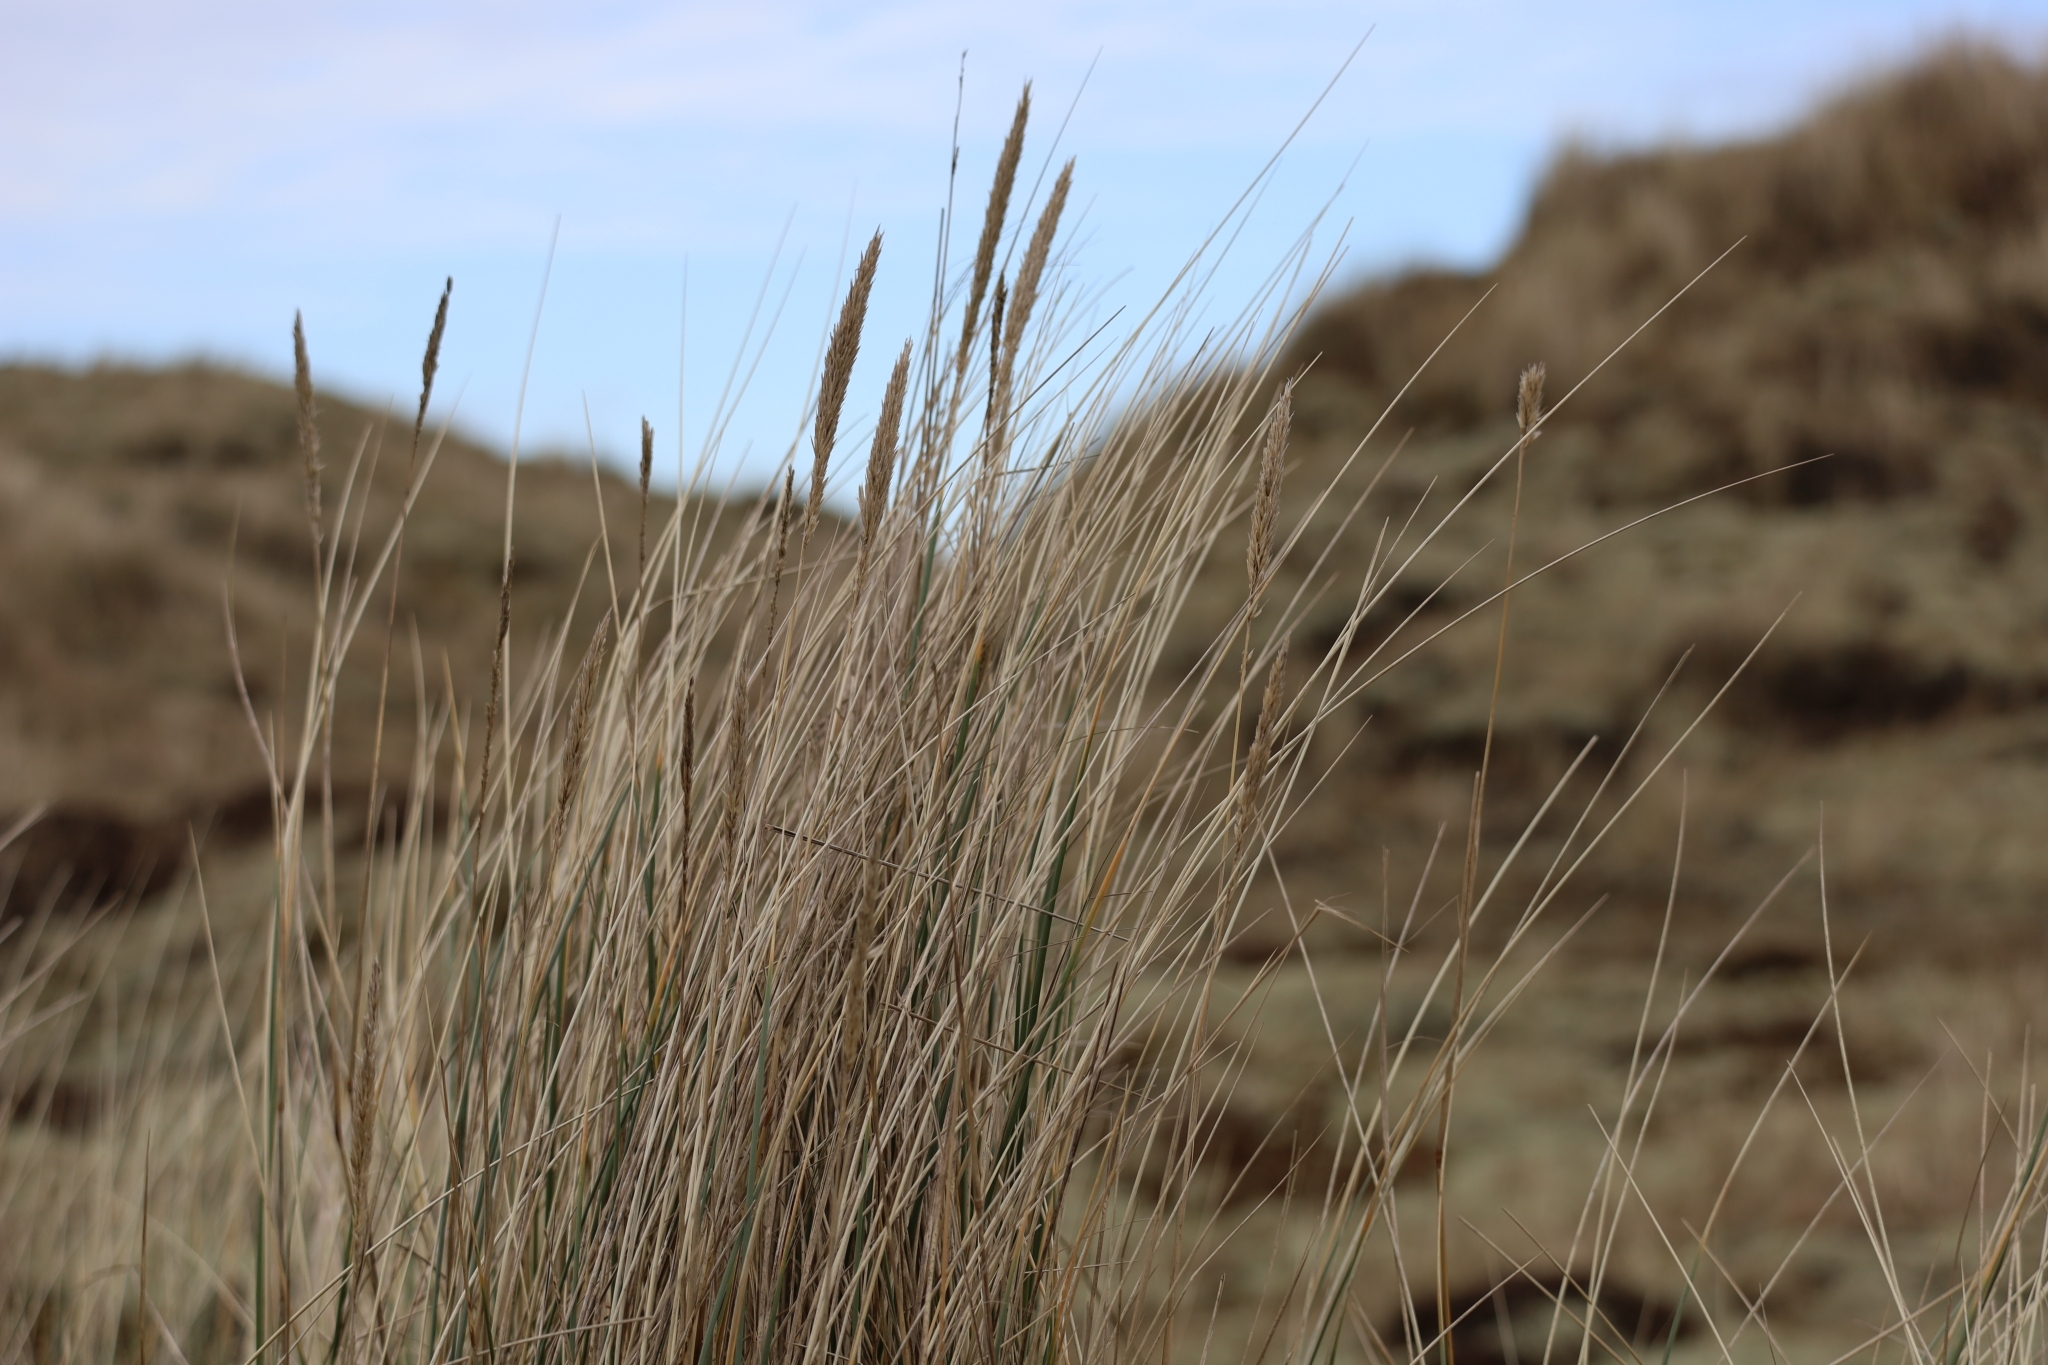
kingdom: Plantae
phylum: Tracheophyta
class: Liliopsida
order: Poales
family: Poaceae
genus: Calamagrostis
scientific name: Calamagrostis arenaria
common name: European beachgrass
